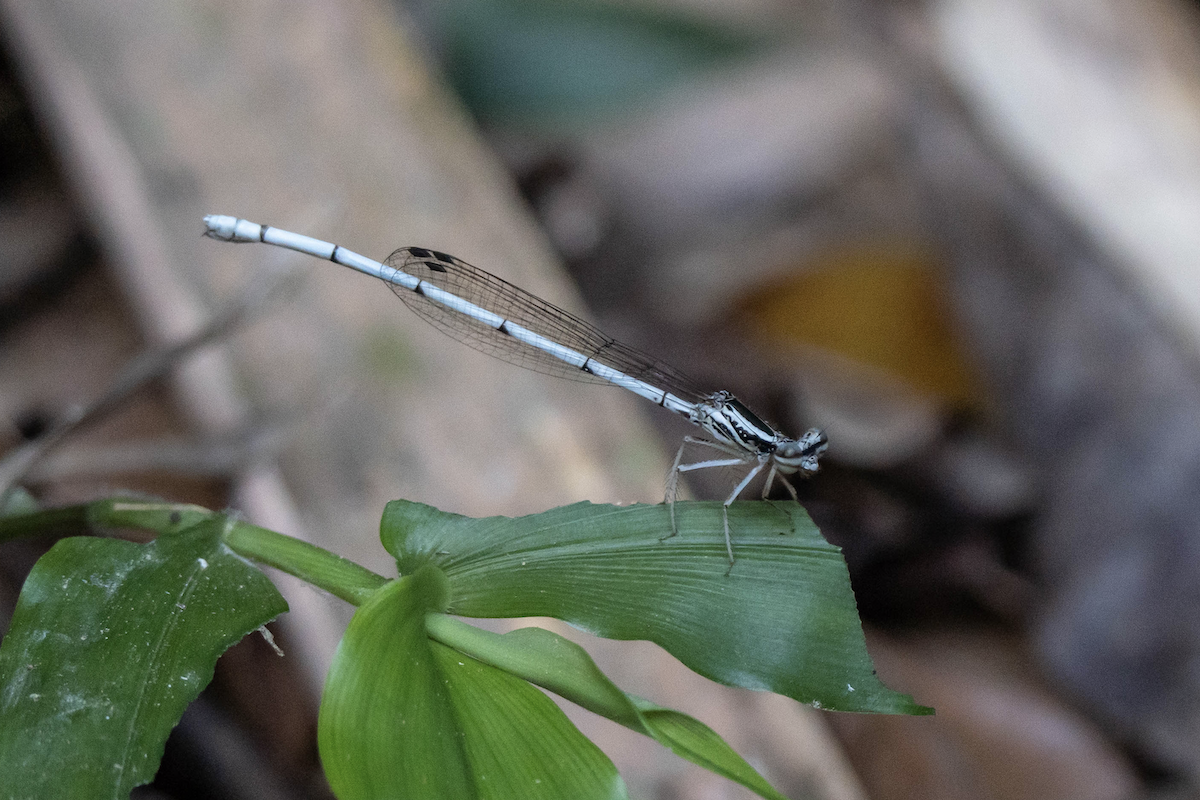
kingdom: Animalia
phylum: Arthropoda
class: Insecta
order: Odonata
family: Platycnemididae
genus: Copera
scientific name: Copera marginipes
